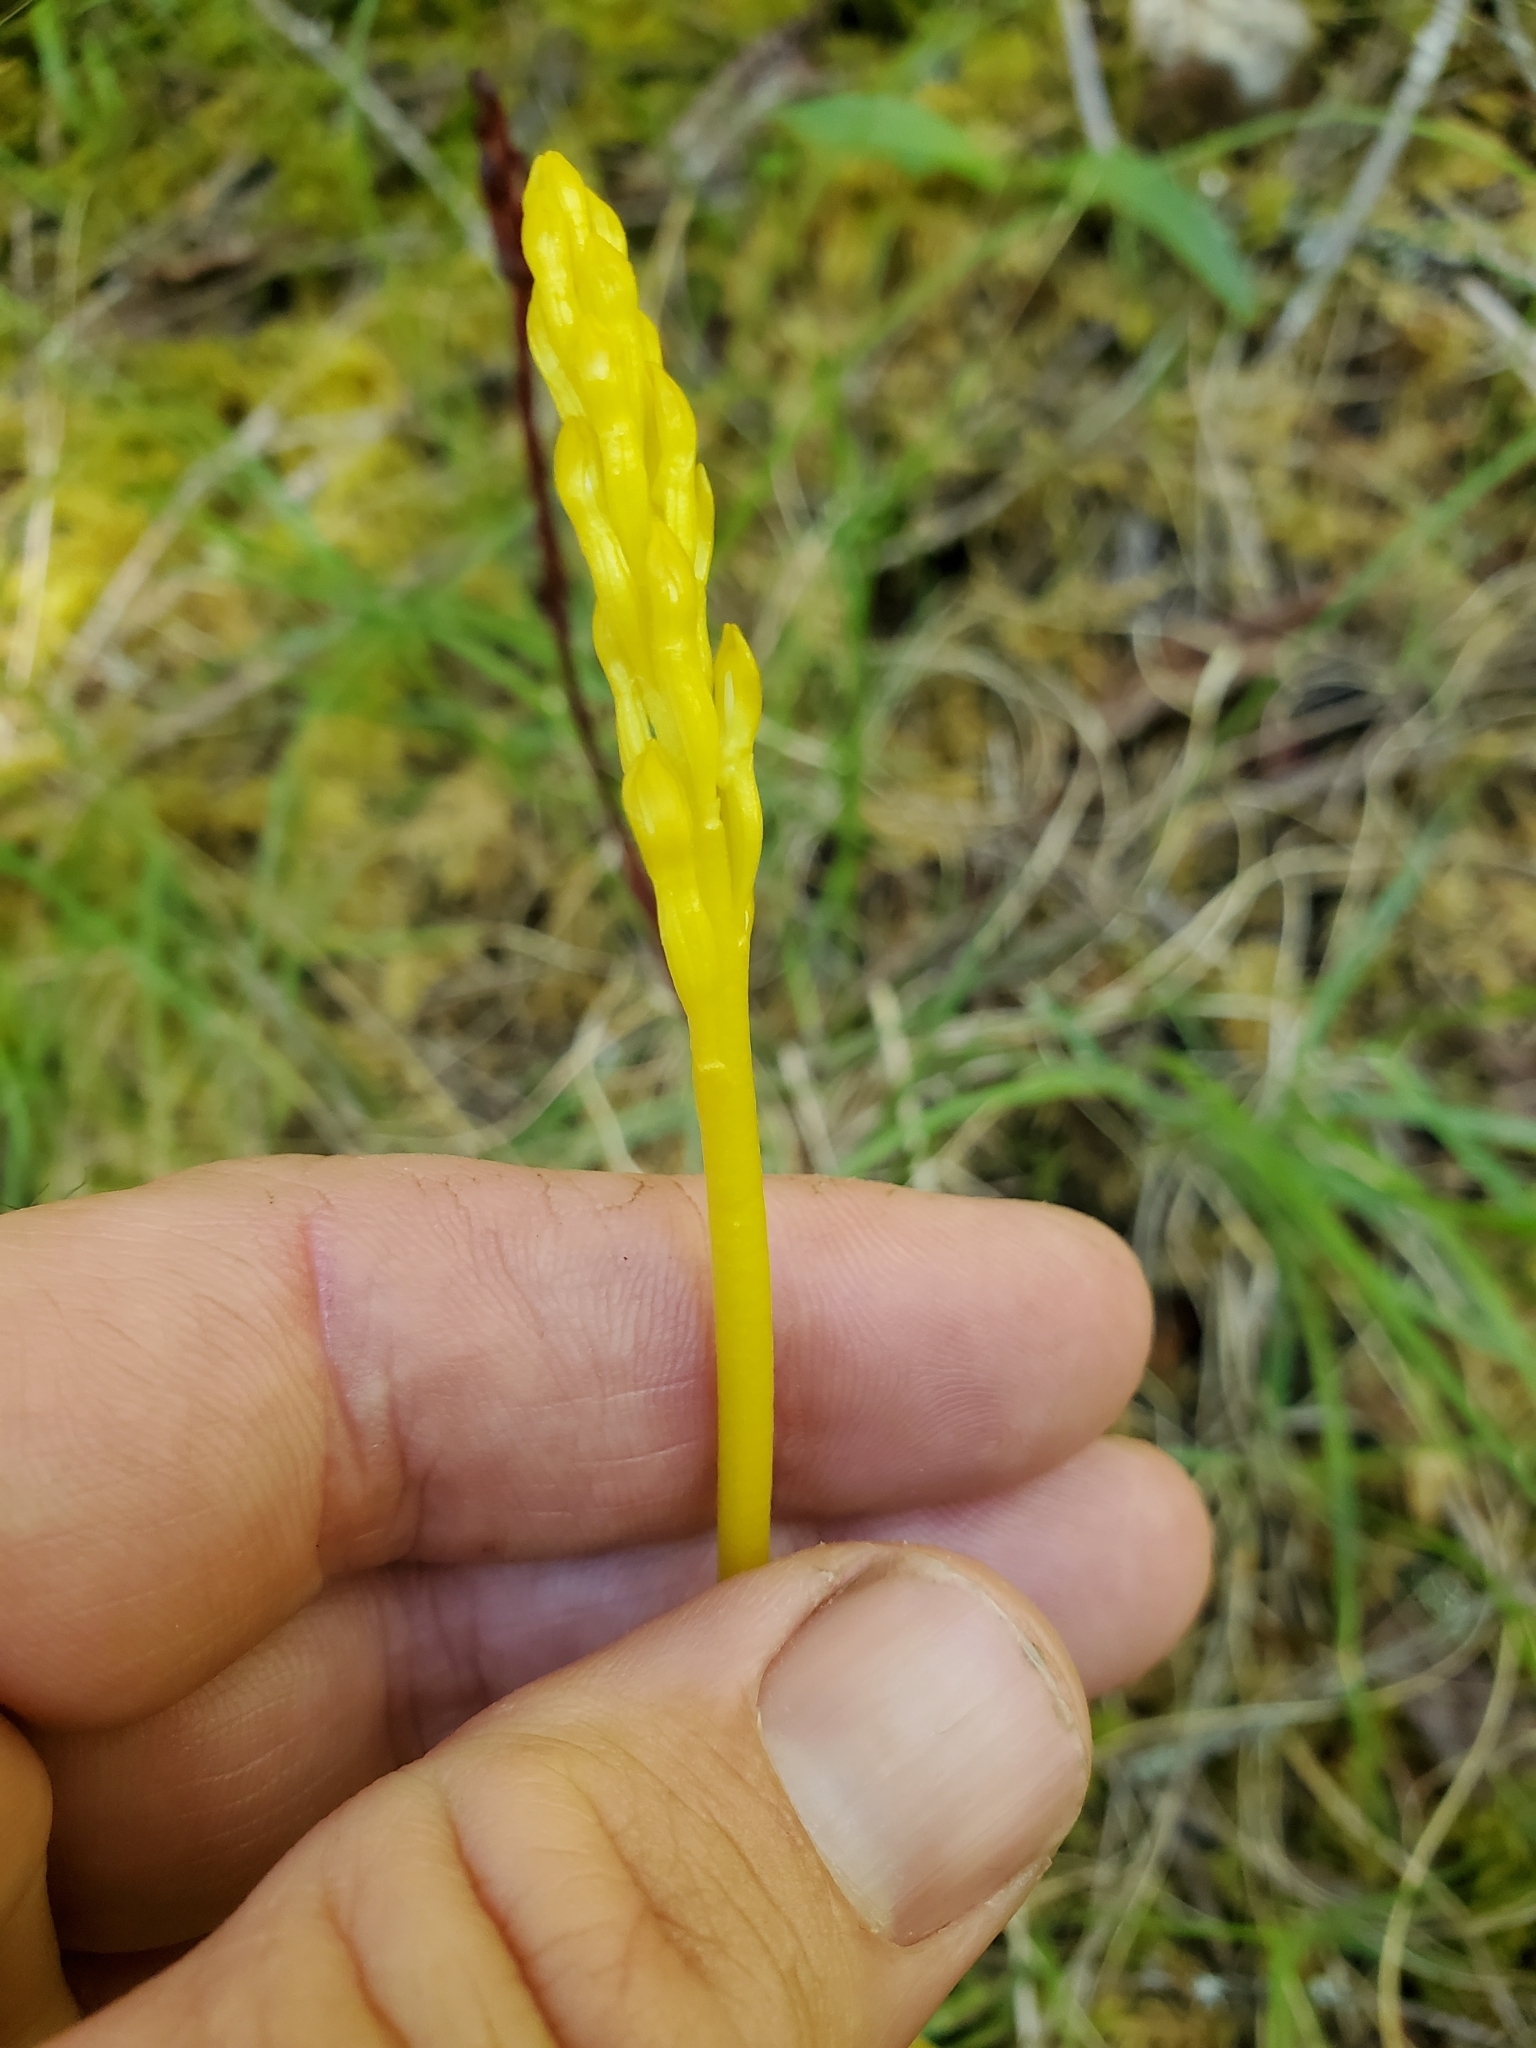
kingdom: Plantae
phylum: Tracheophyta
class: Liliopsida
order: Asparagales
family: Orchidaceae
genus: Corallorhiza
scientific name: Corallorhiza maculata
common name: Spotted coralroot
